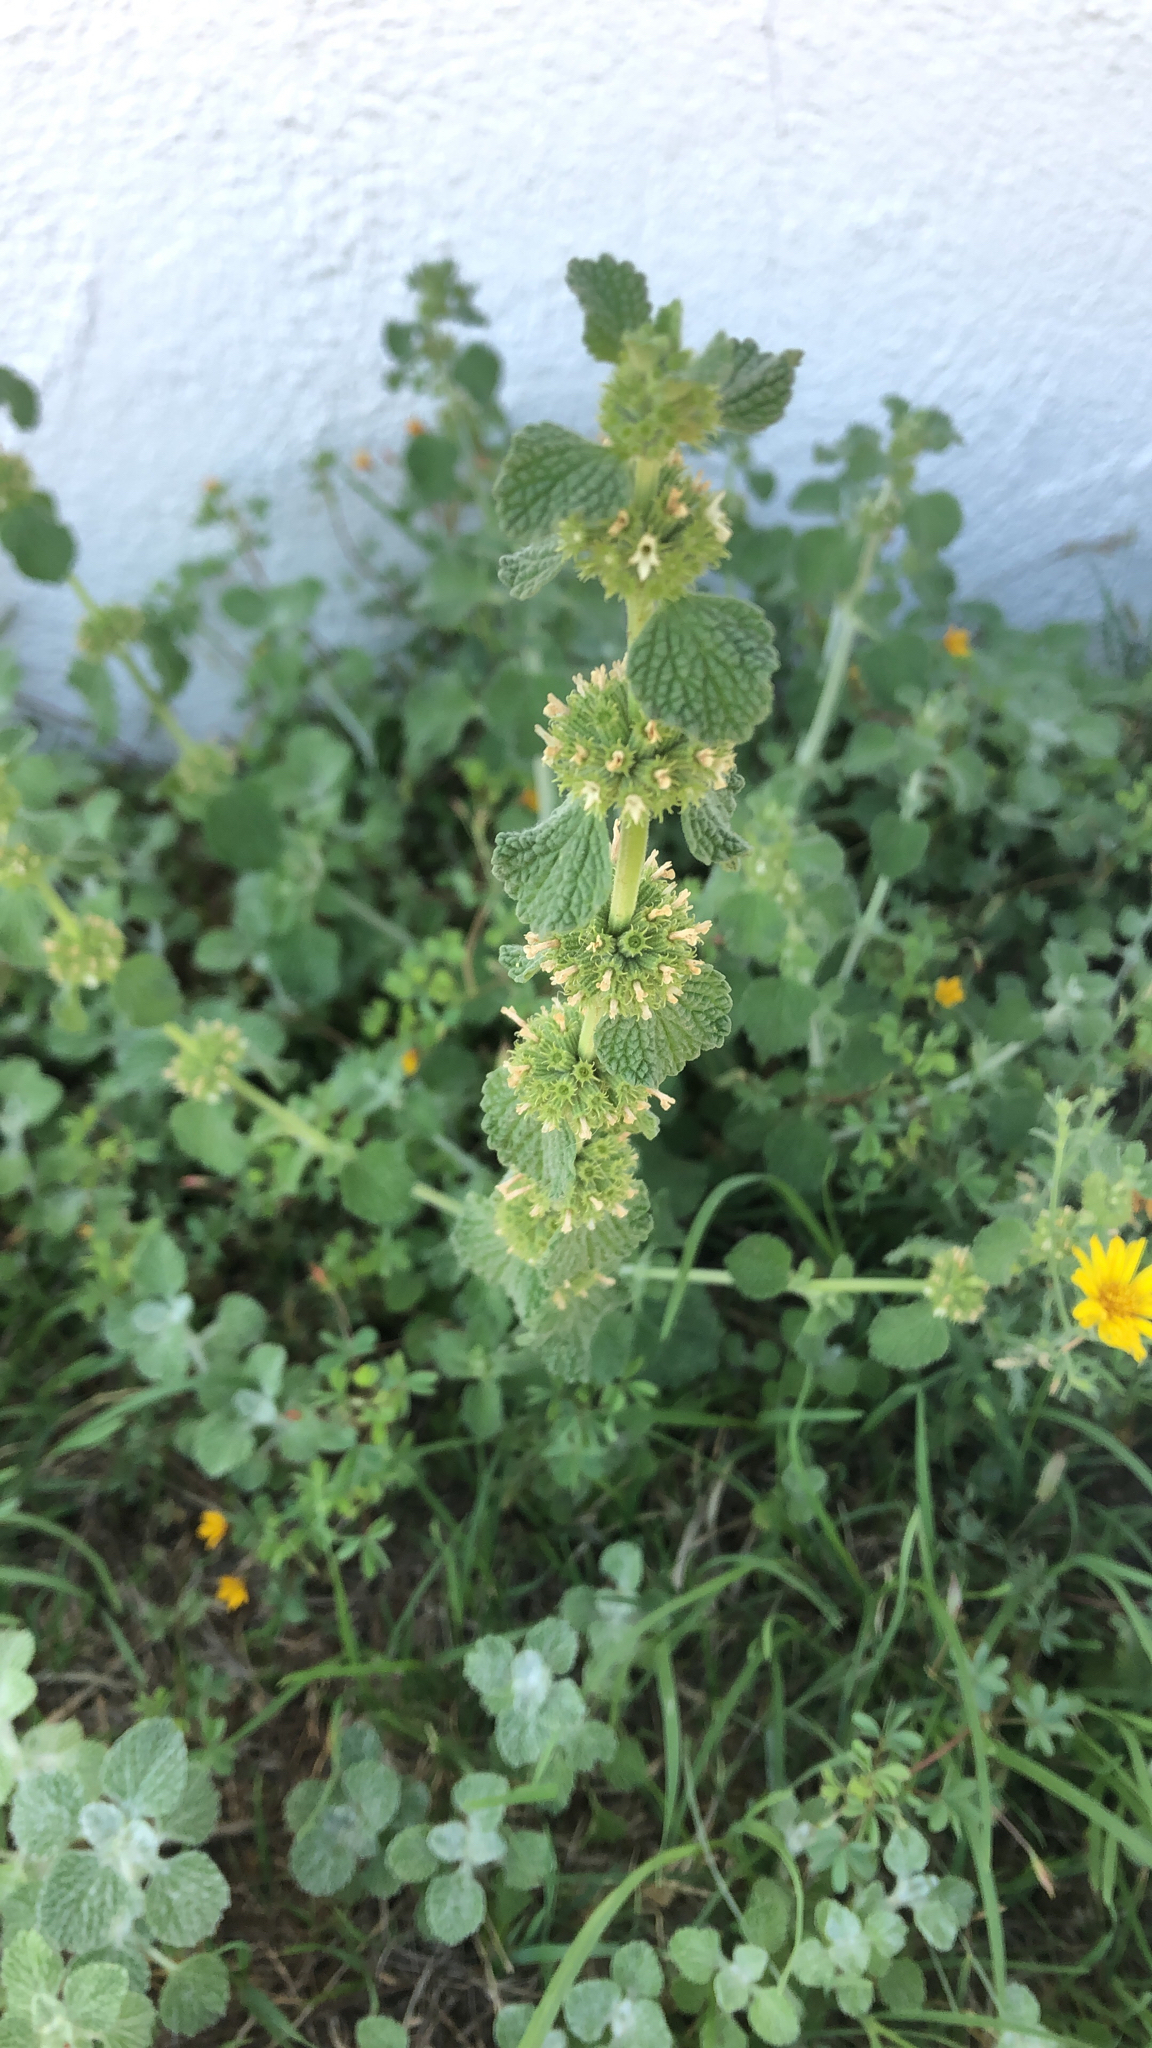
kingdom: Plantae
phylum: Tracheophyta
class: Magnoliopsida
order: Lamiales
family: Lamiaceae
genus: Marrubium
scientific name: Marrubium vulgare
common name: Horehound
